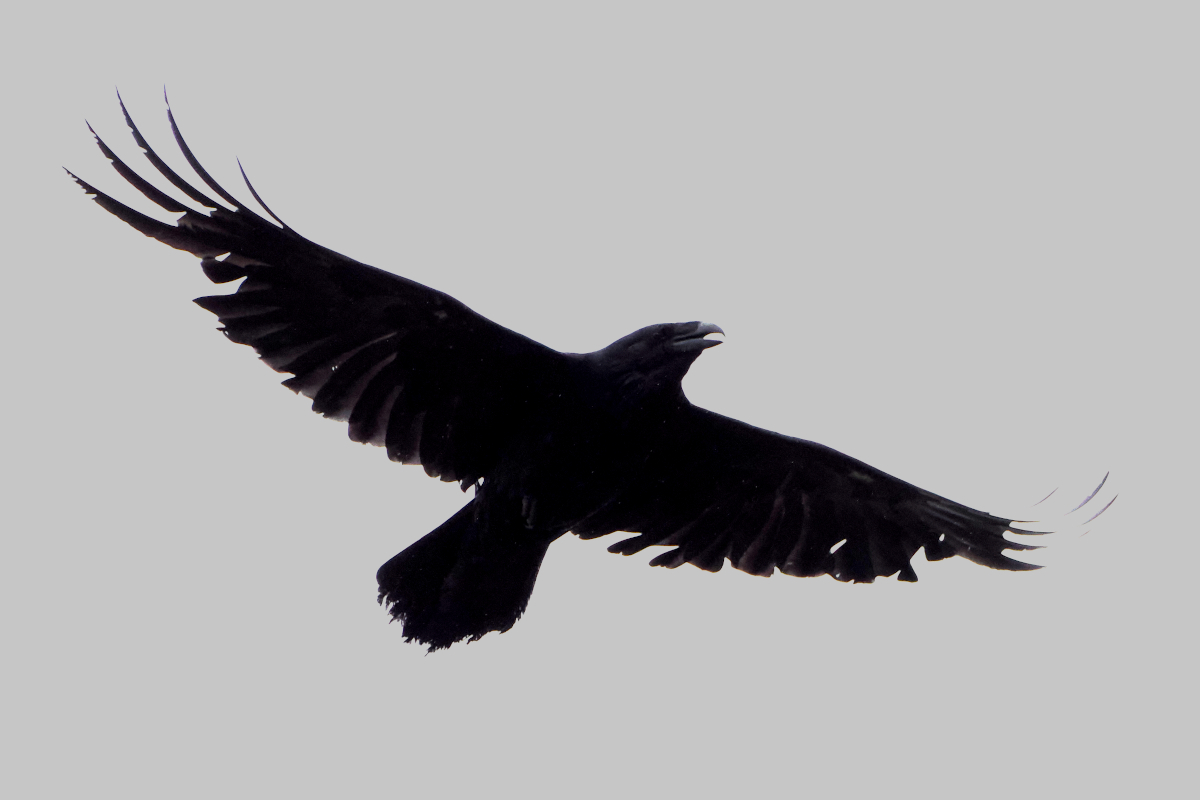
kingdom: Animalia
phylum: Chordata
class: Aves
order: Passeriformes
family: Corvidae
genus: Corvus
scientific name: Corvus corax
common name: Common raven
